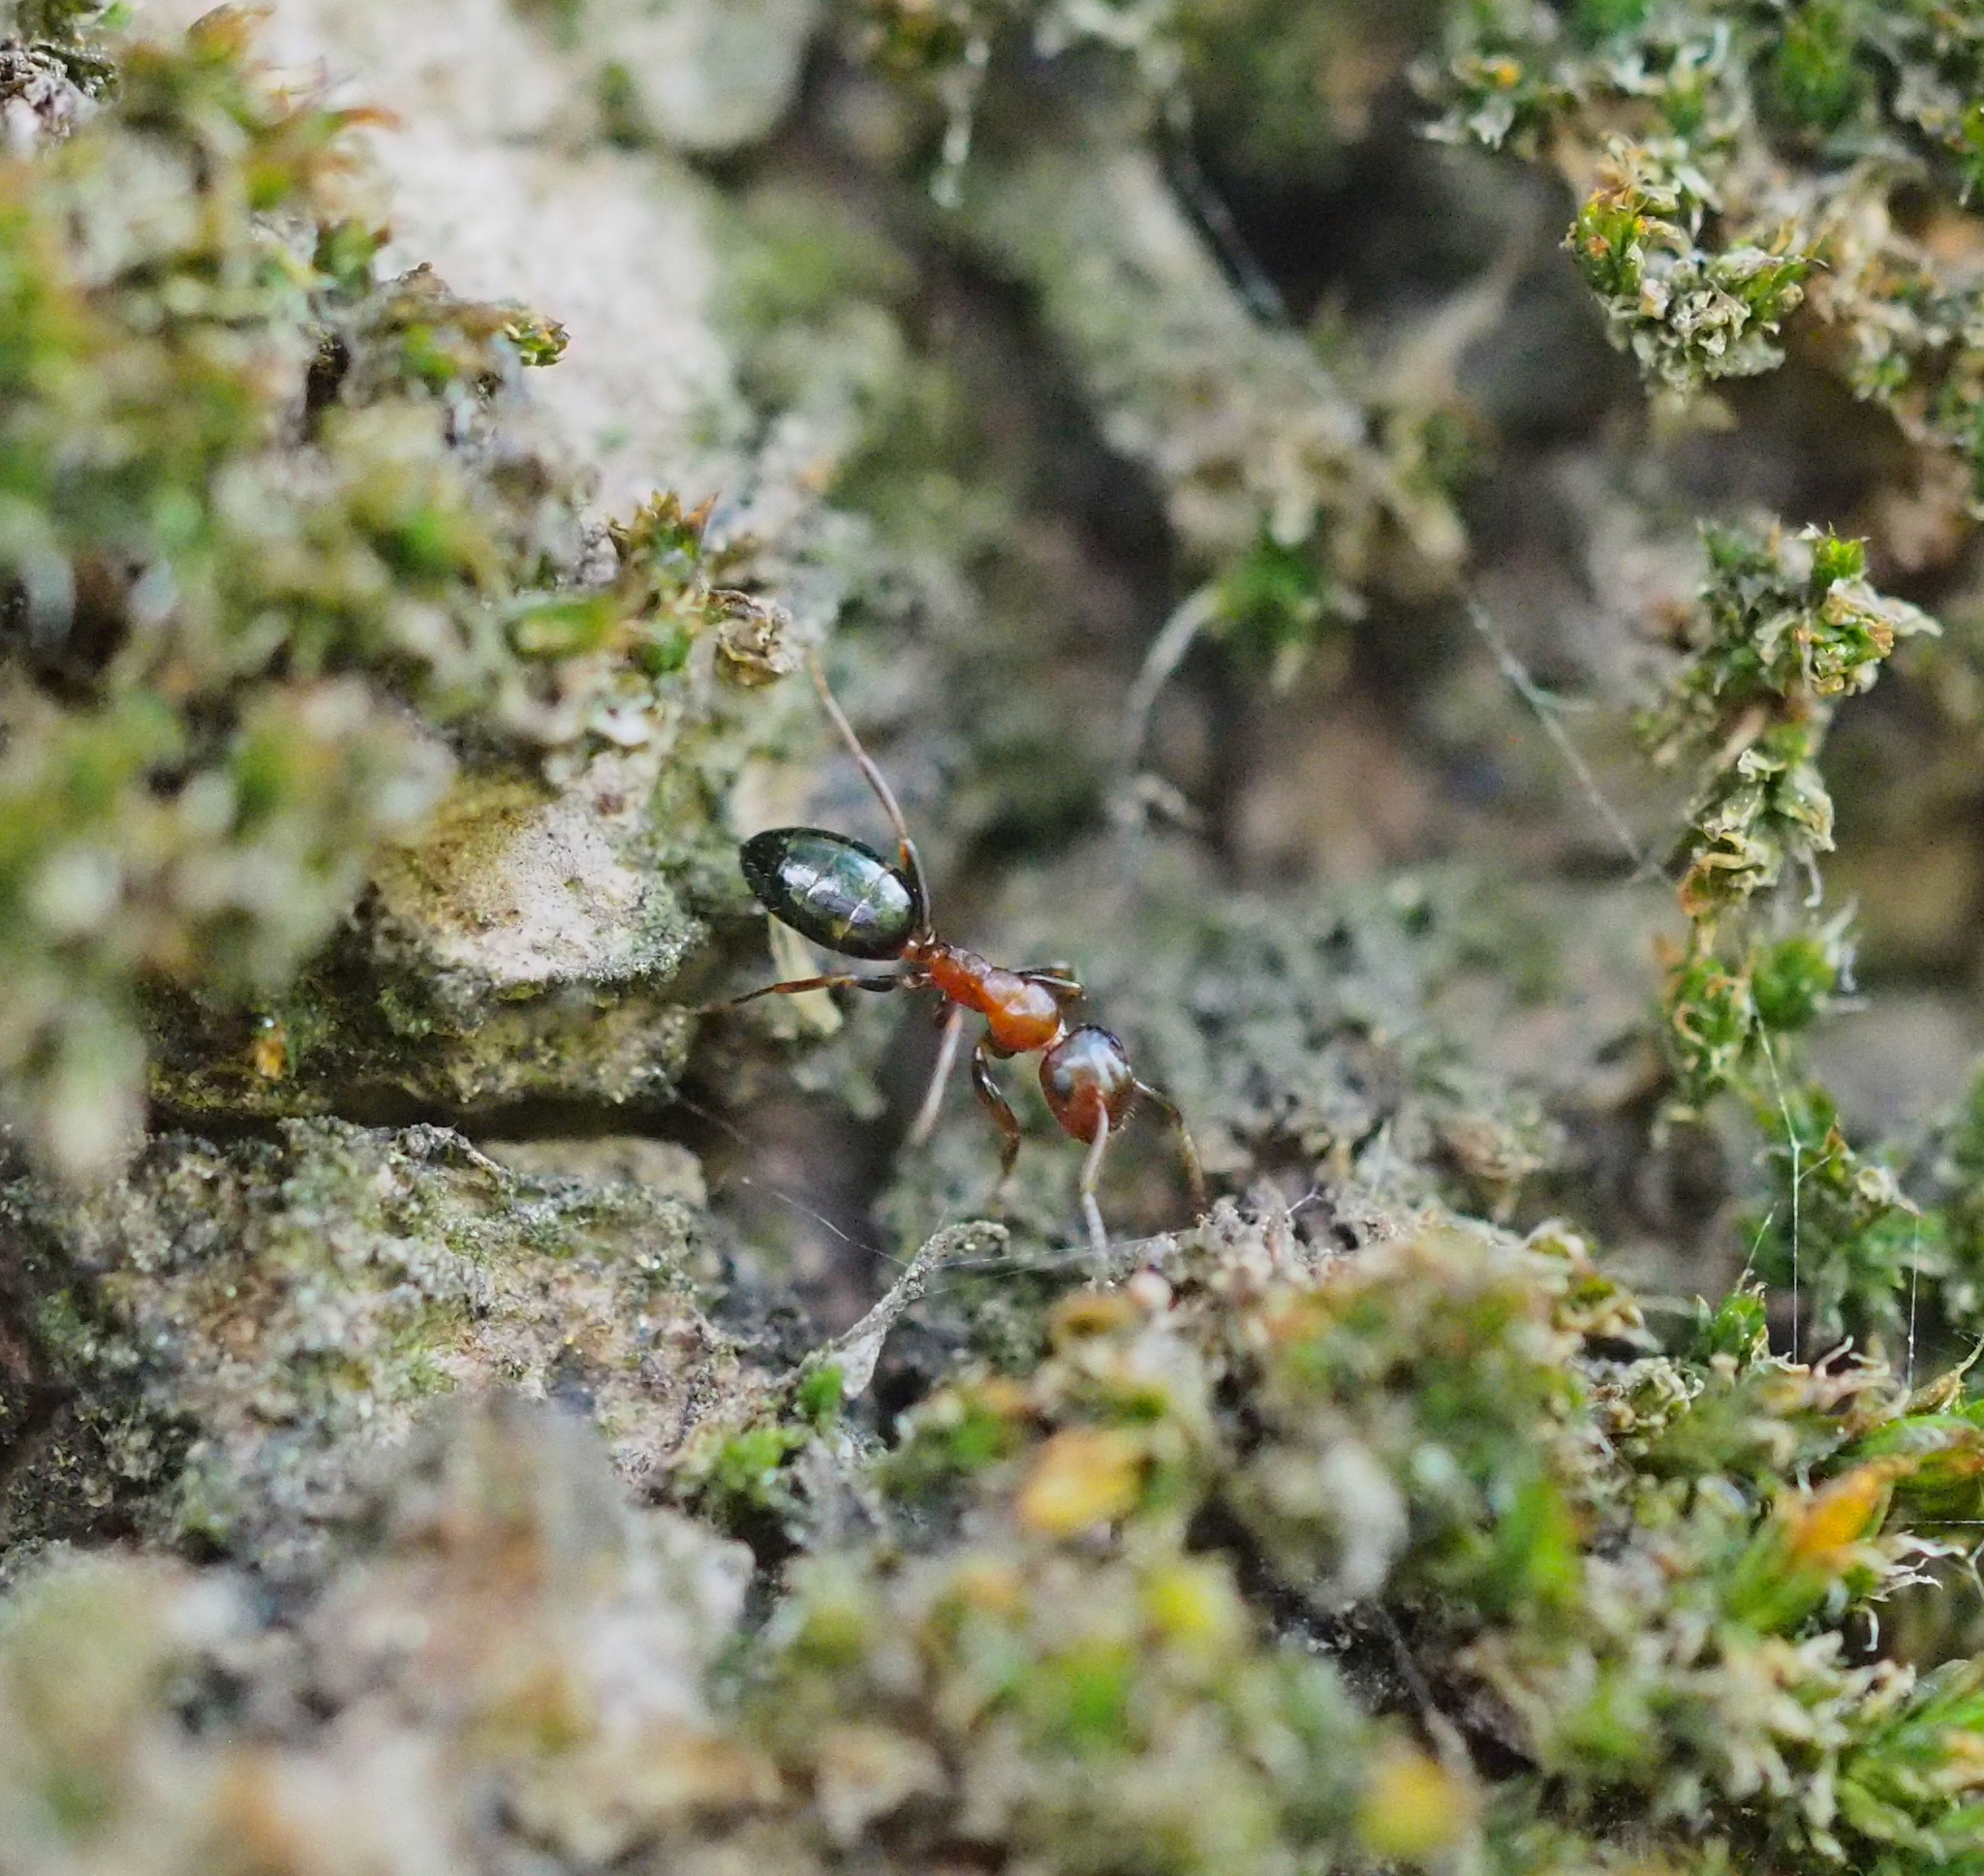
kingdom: Animalia
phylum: Arthropoda
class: Insecta
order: Hymenoptera
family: Formicidae
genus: Camponotus
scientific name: Camponotus truncatus
